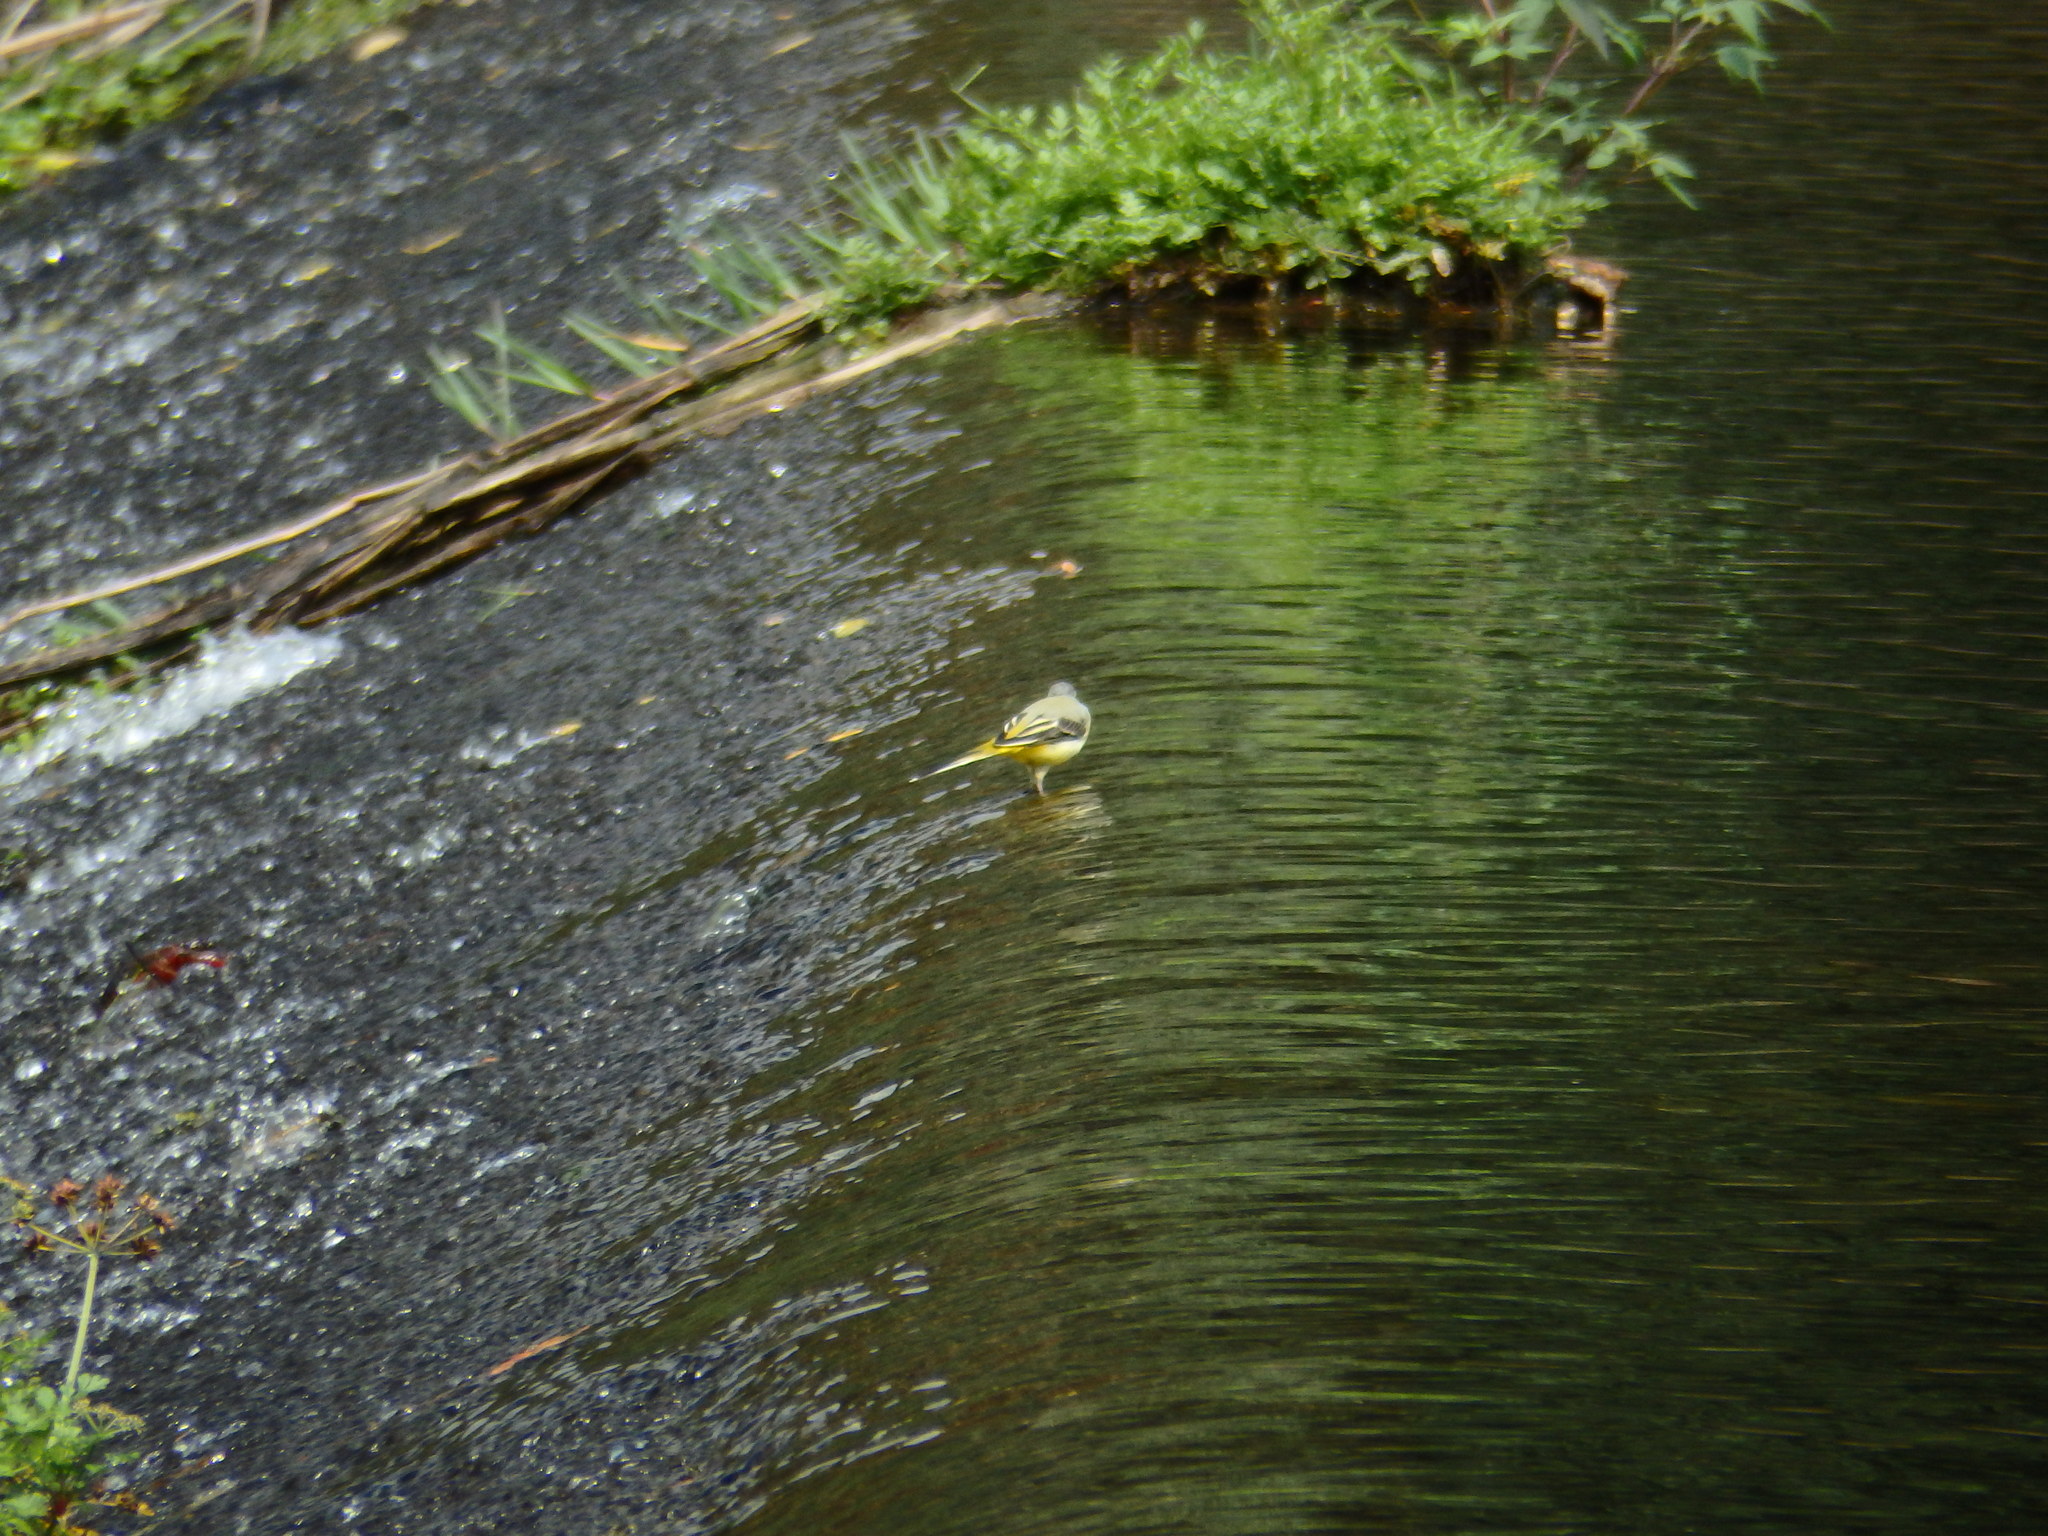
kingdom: Animalia
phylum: Chordata
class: Aves
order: Passeriformes
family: Motacillidae
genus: Motacilla
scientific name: Motacilla cinerea
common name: Grey wagtail
